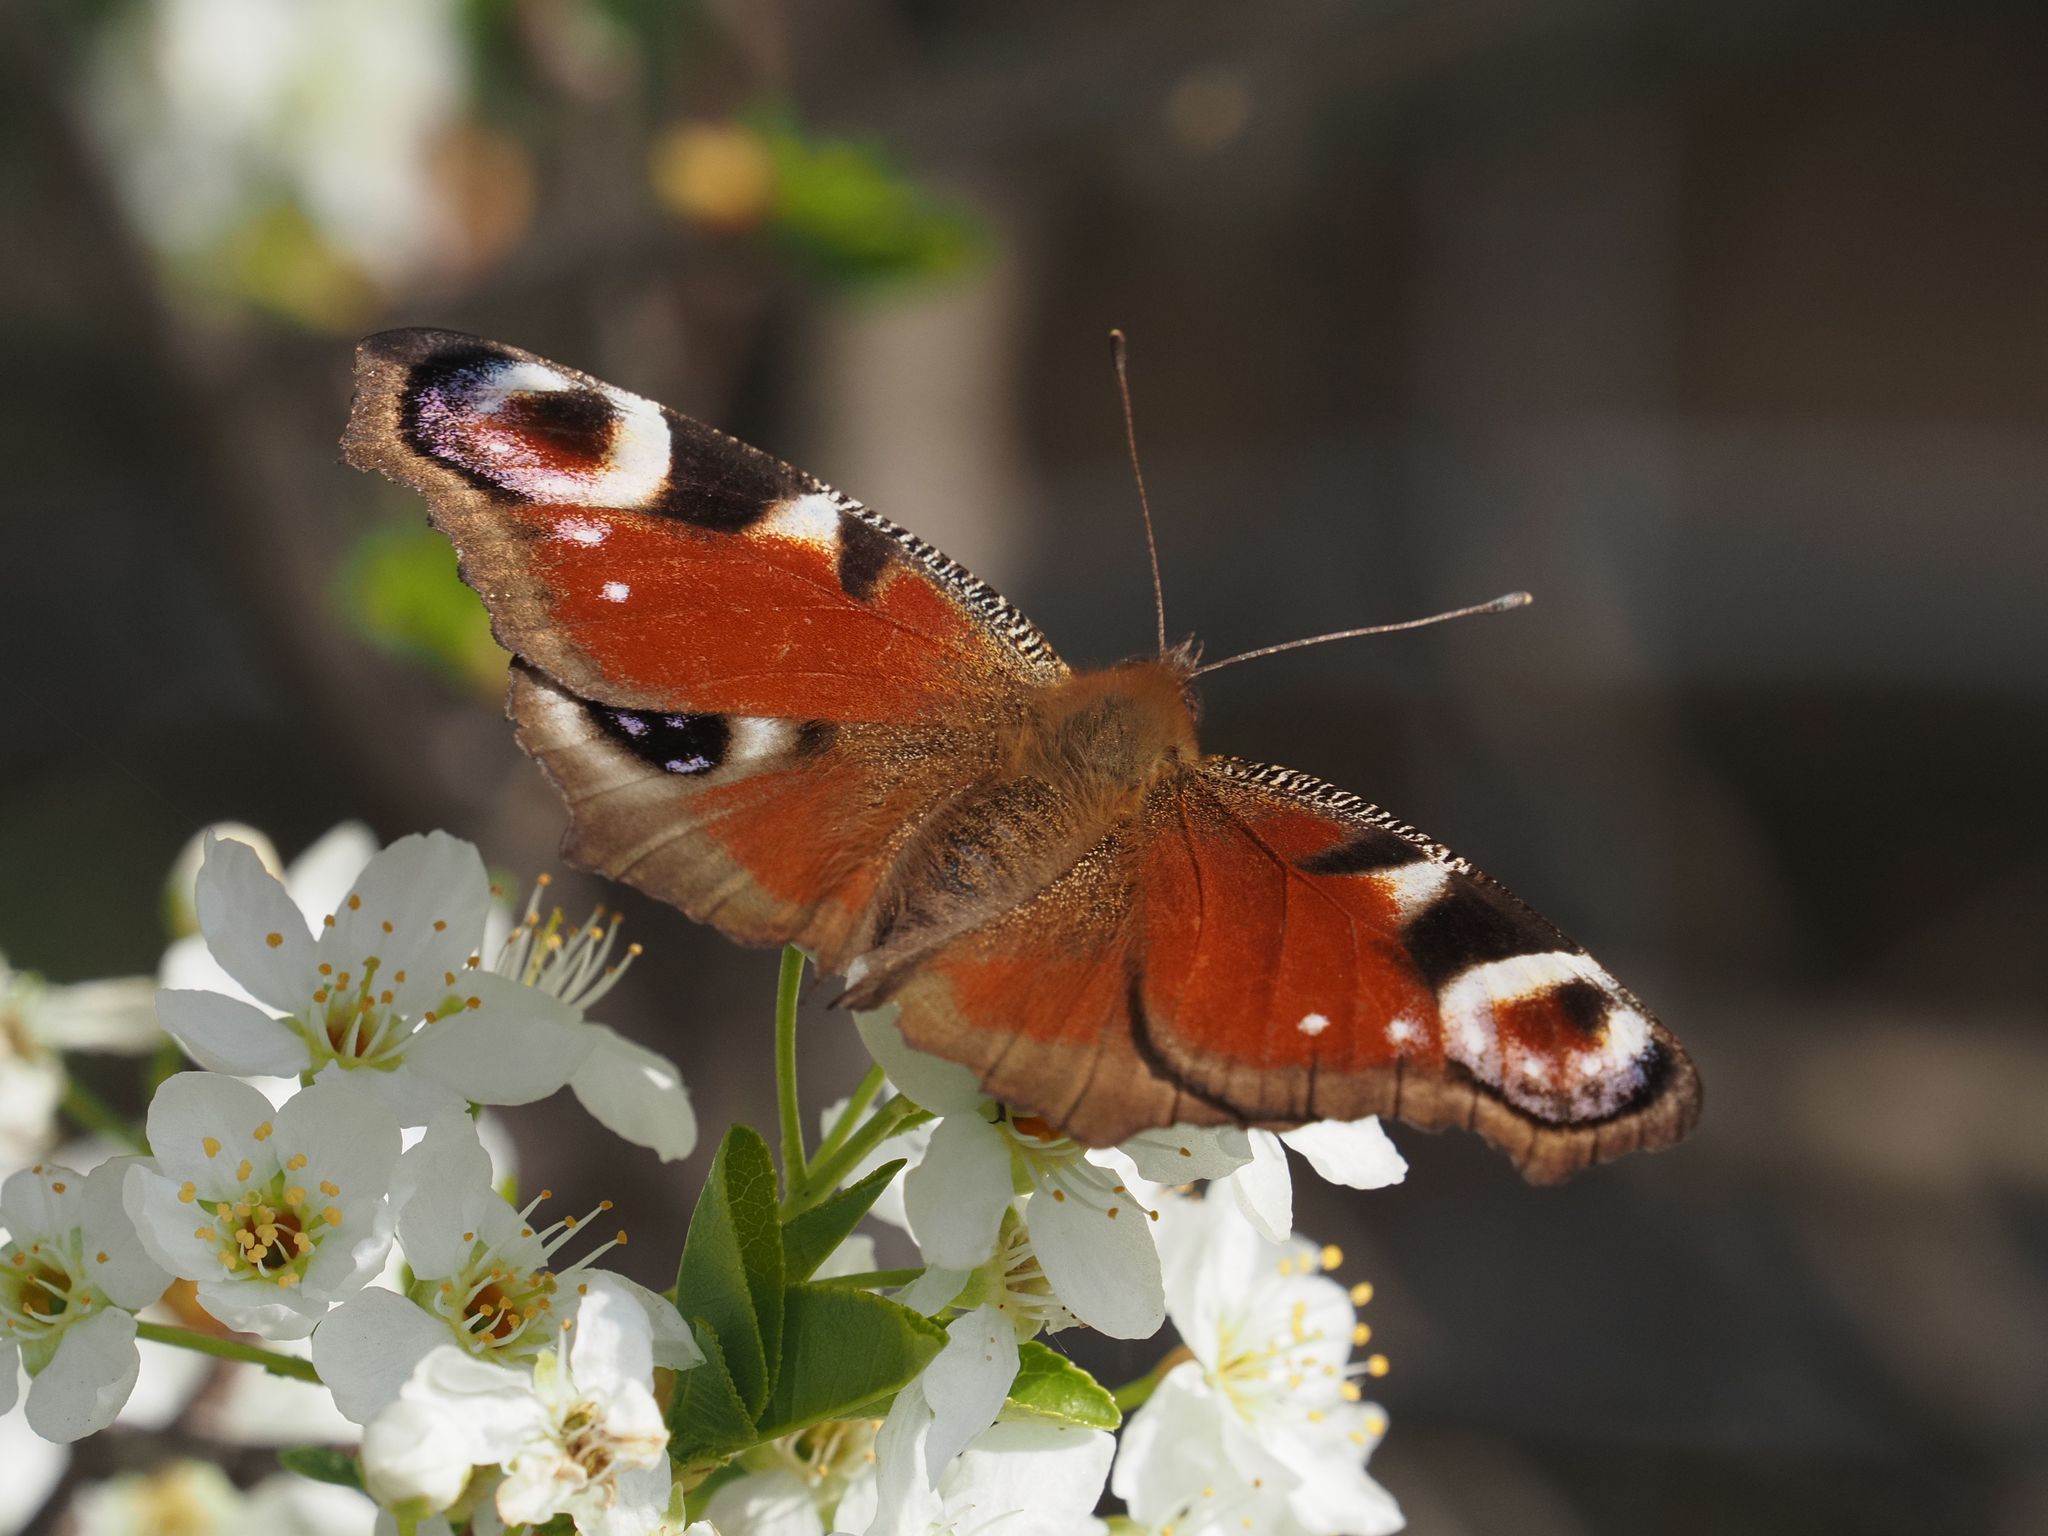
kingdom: Animalia
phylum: Arthropoda
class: Insecta
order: Lepidoptera
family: Nymphalidae
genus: Aglais
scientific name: Aglais io
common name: Peacock
